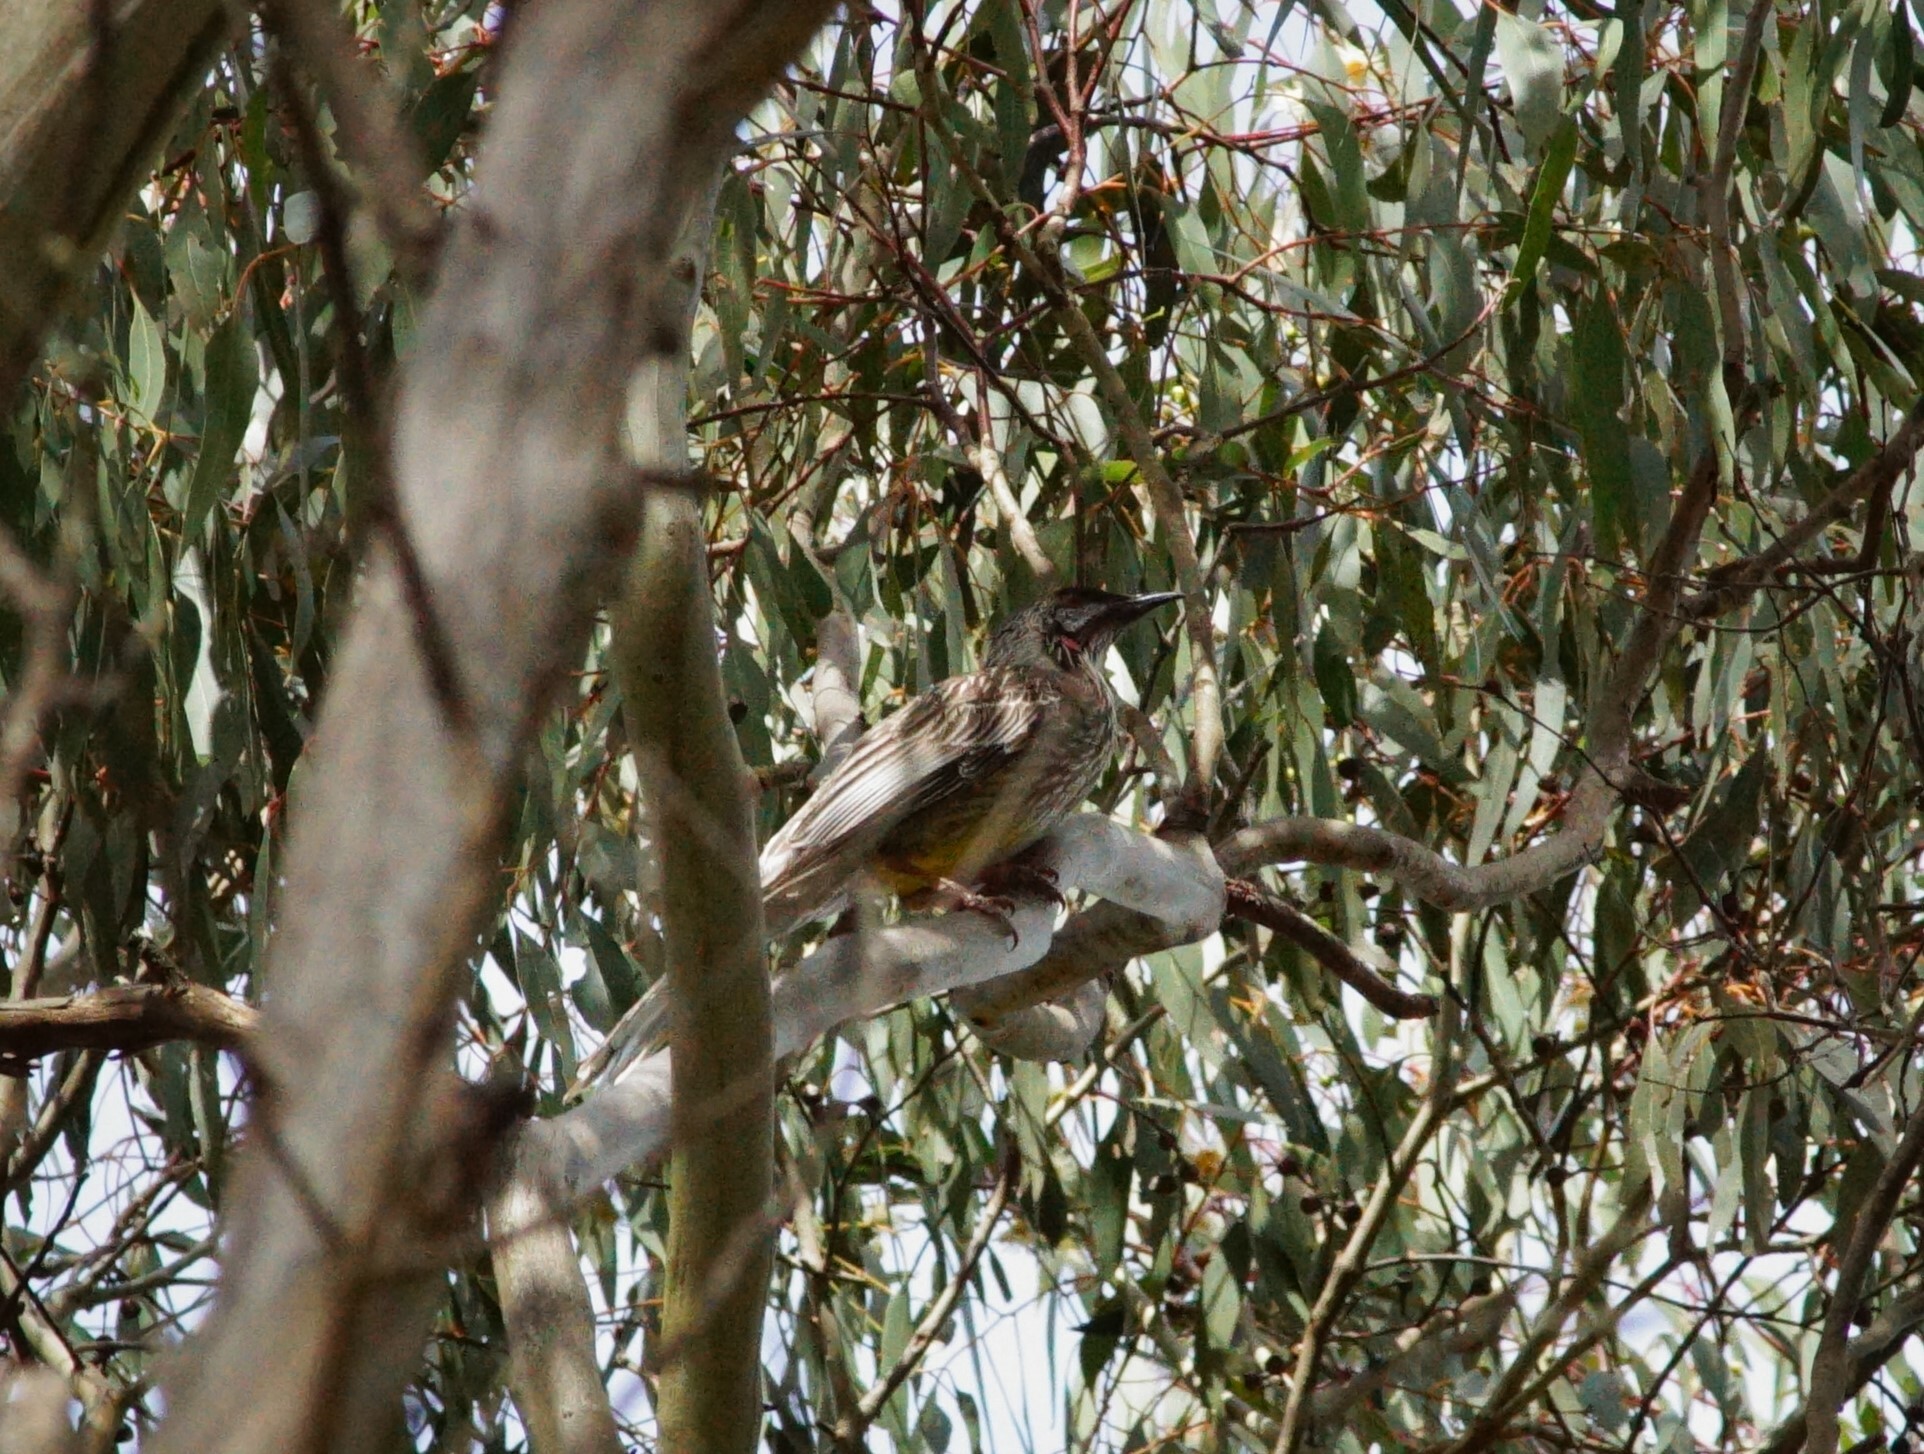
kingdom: Animalia
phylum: Chordata
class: Aves
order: Passeriformes
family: Meliphagidae
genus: Anthochaera
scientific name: Anthochaera carunculata
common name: Red wattlebird
